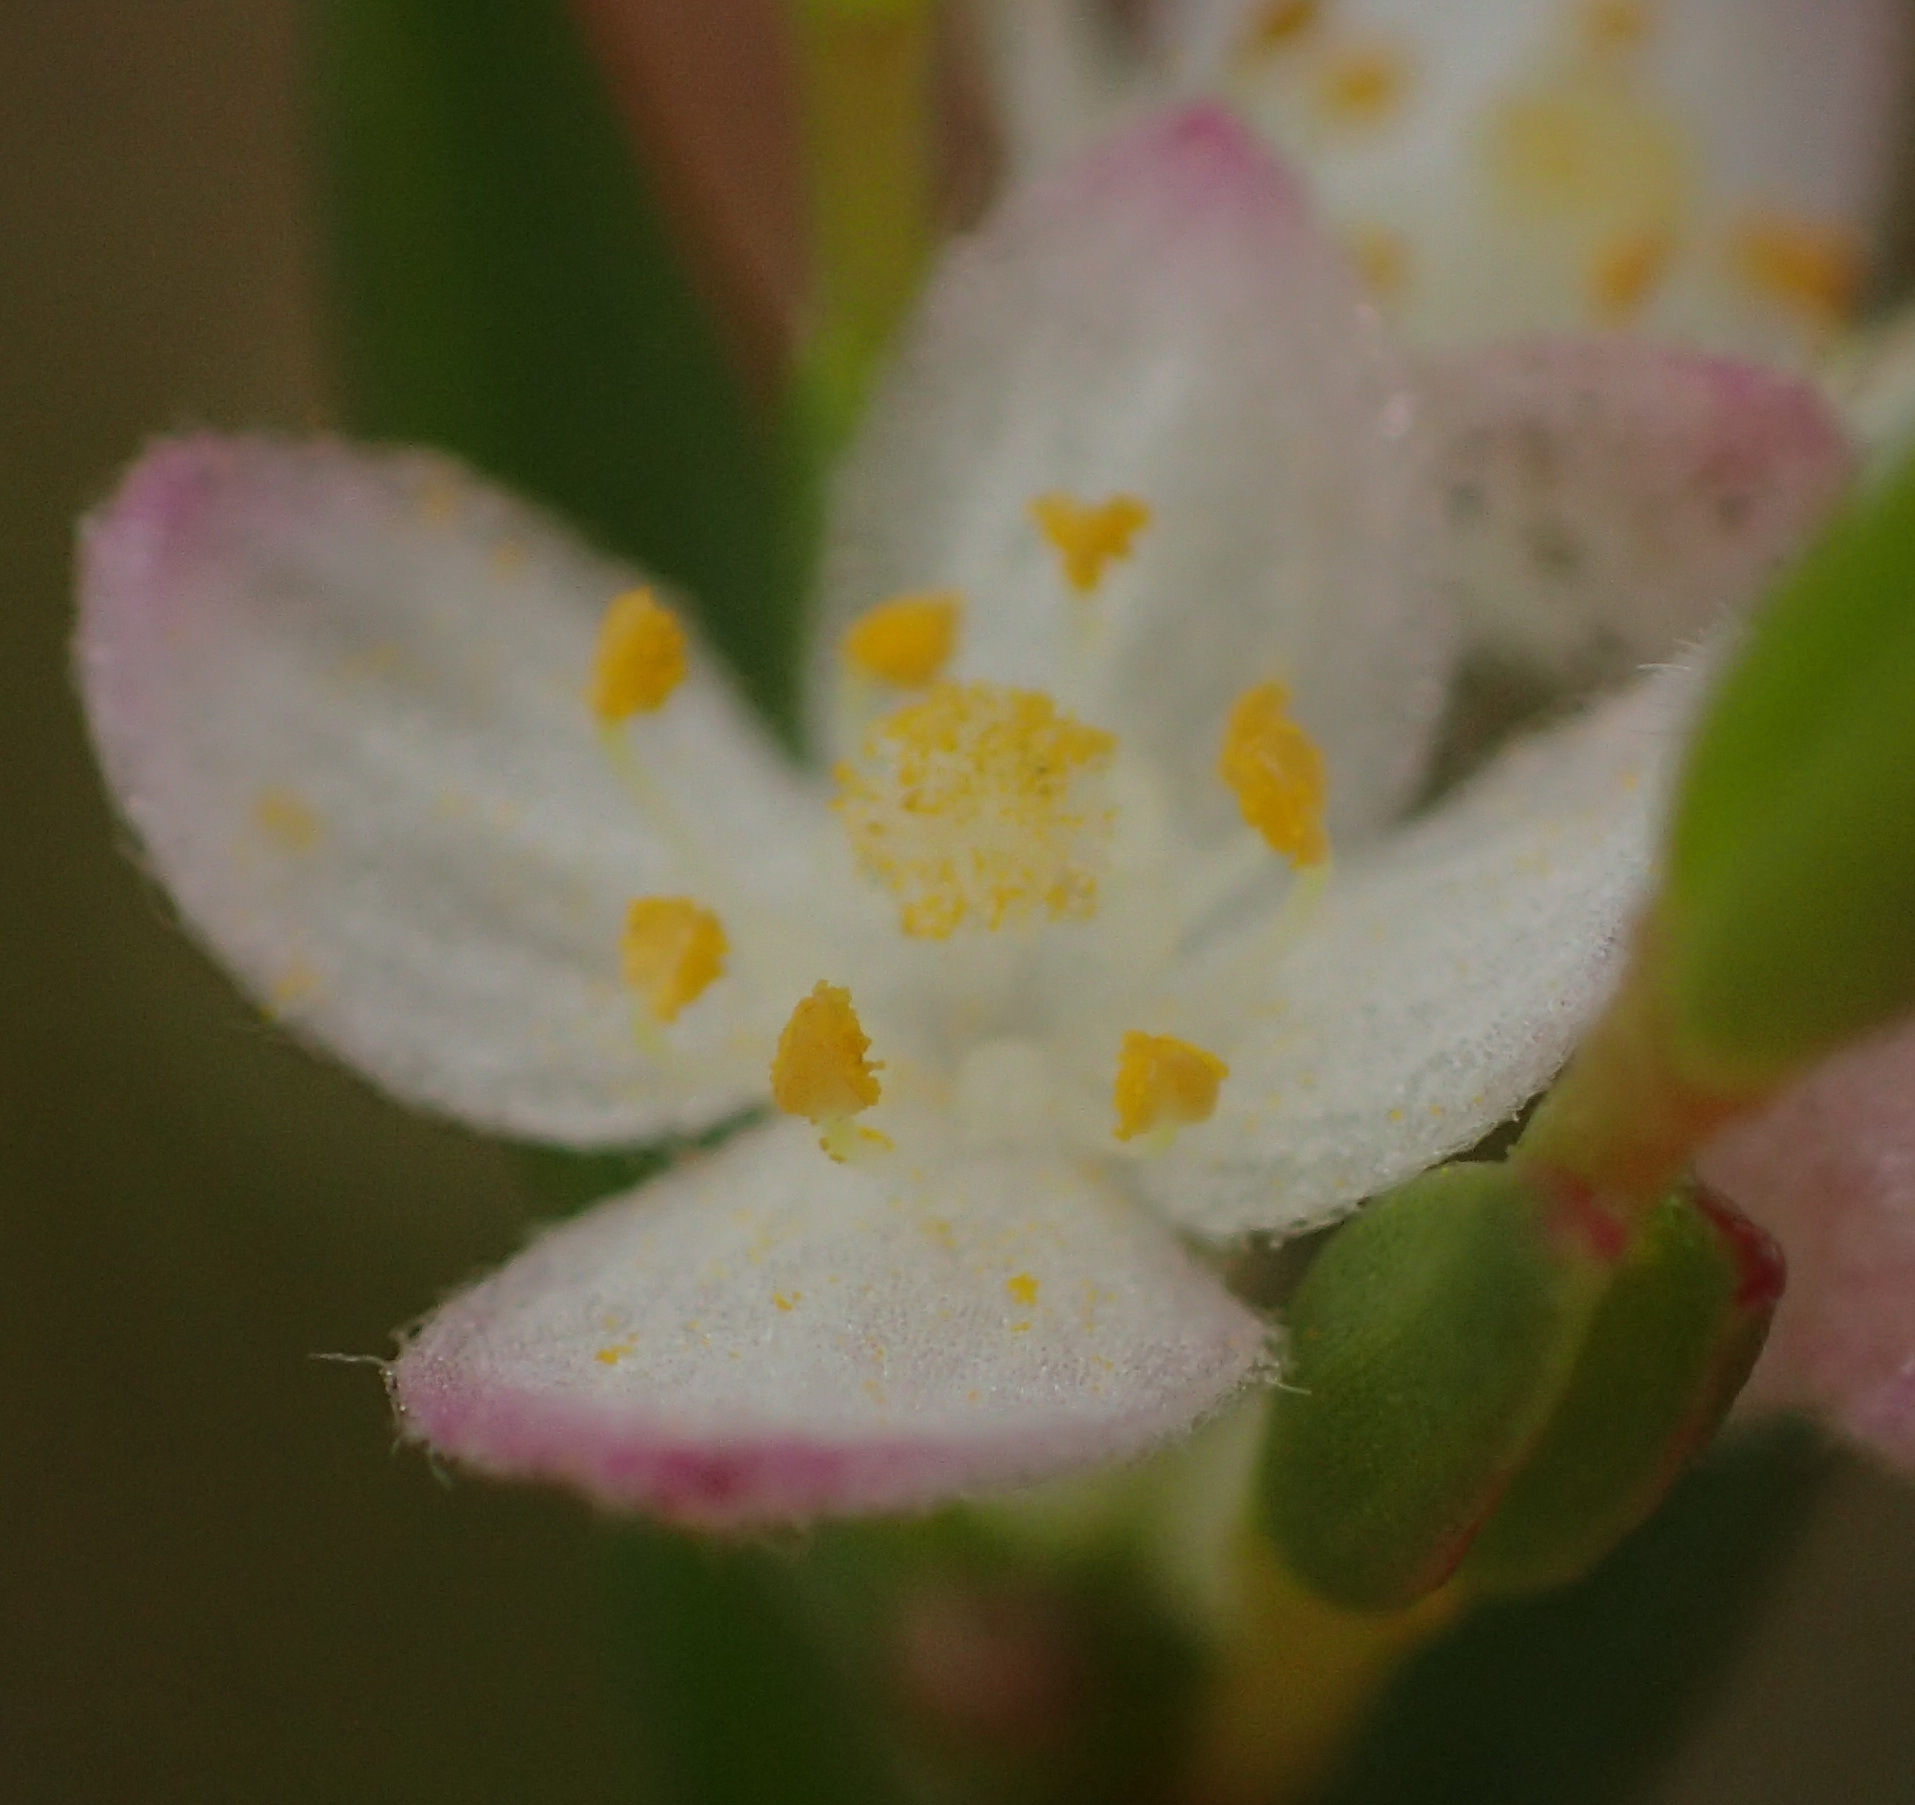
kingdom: Plantae
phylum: Tracheophyta
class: Magnoliopsida
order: Malvales
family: Thymelaeaceae
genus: Lachnaea
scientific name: Lachnaea burchellii
